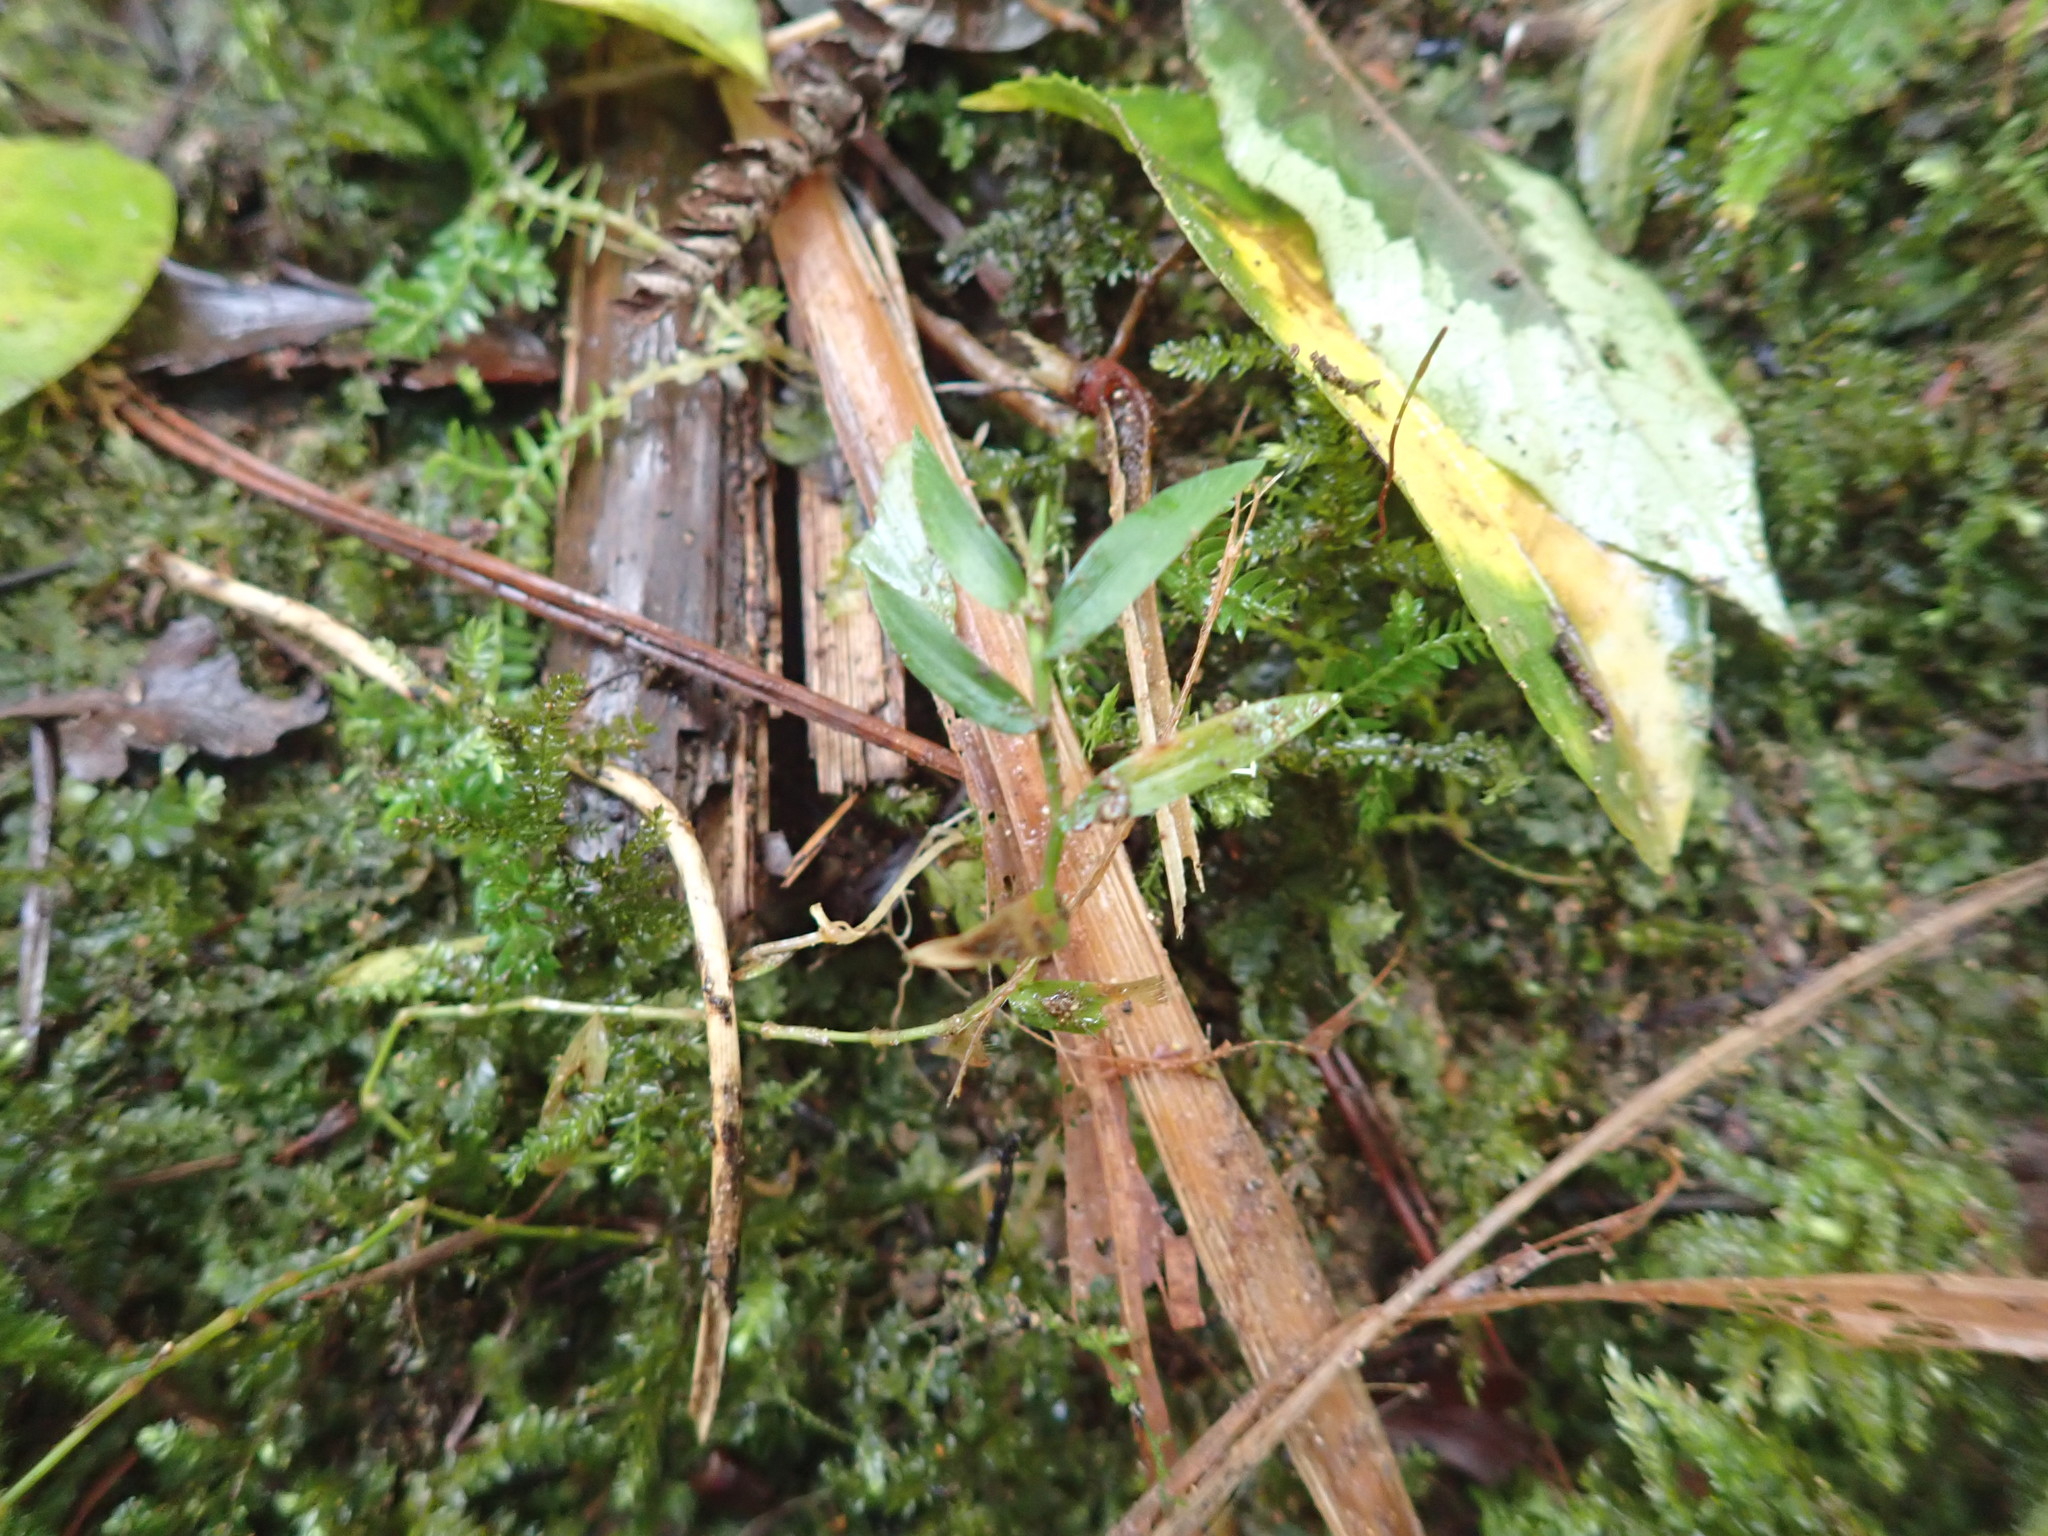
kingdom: Plantae
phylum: Tracheophyta
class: Liliopsida
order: Poales
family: Poaceae
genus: Oplismenus
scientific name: Oplismenus hirtellus
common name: Basketgrass
